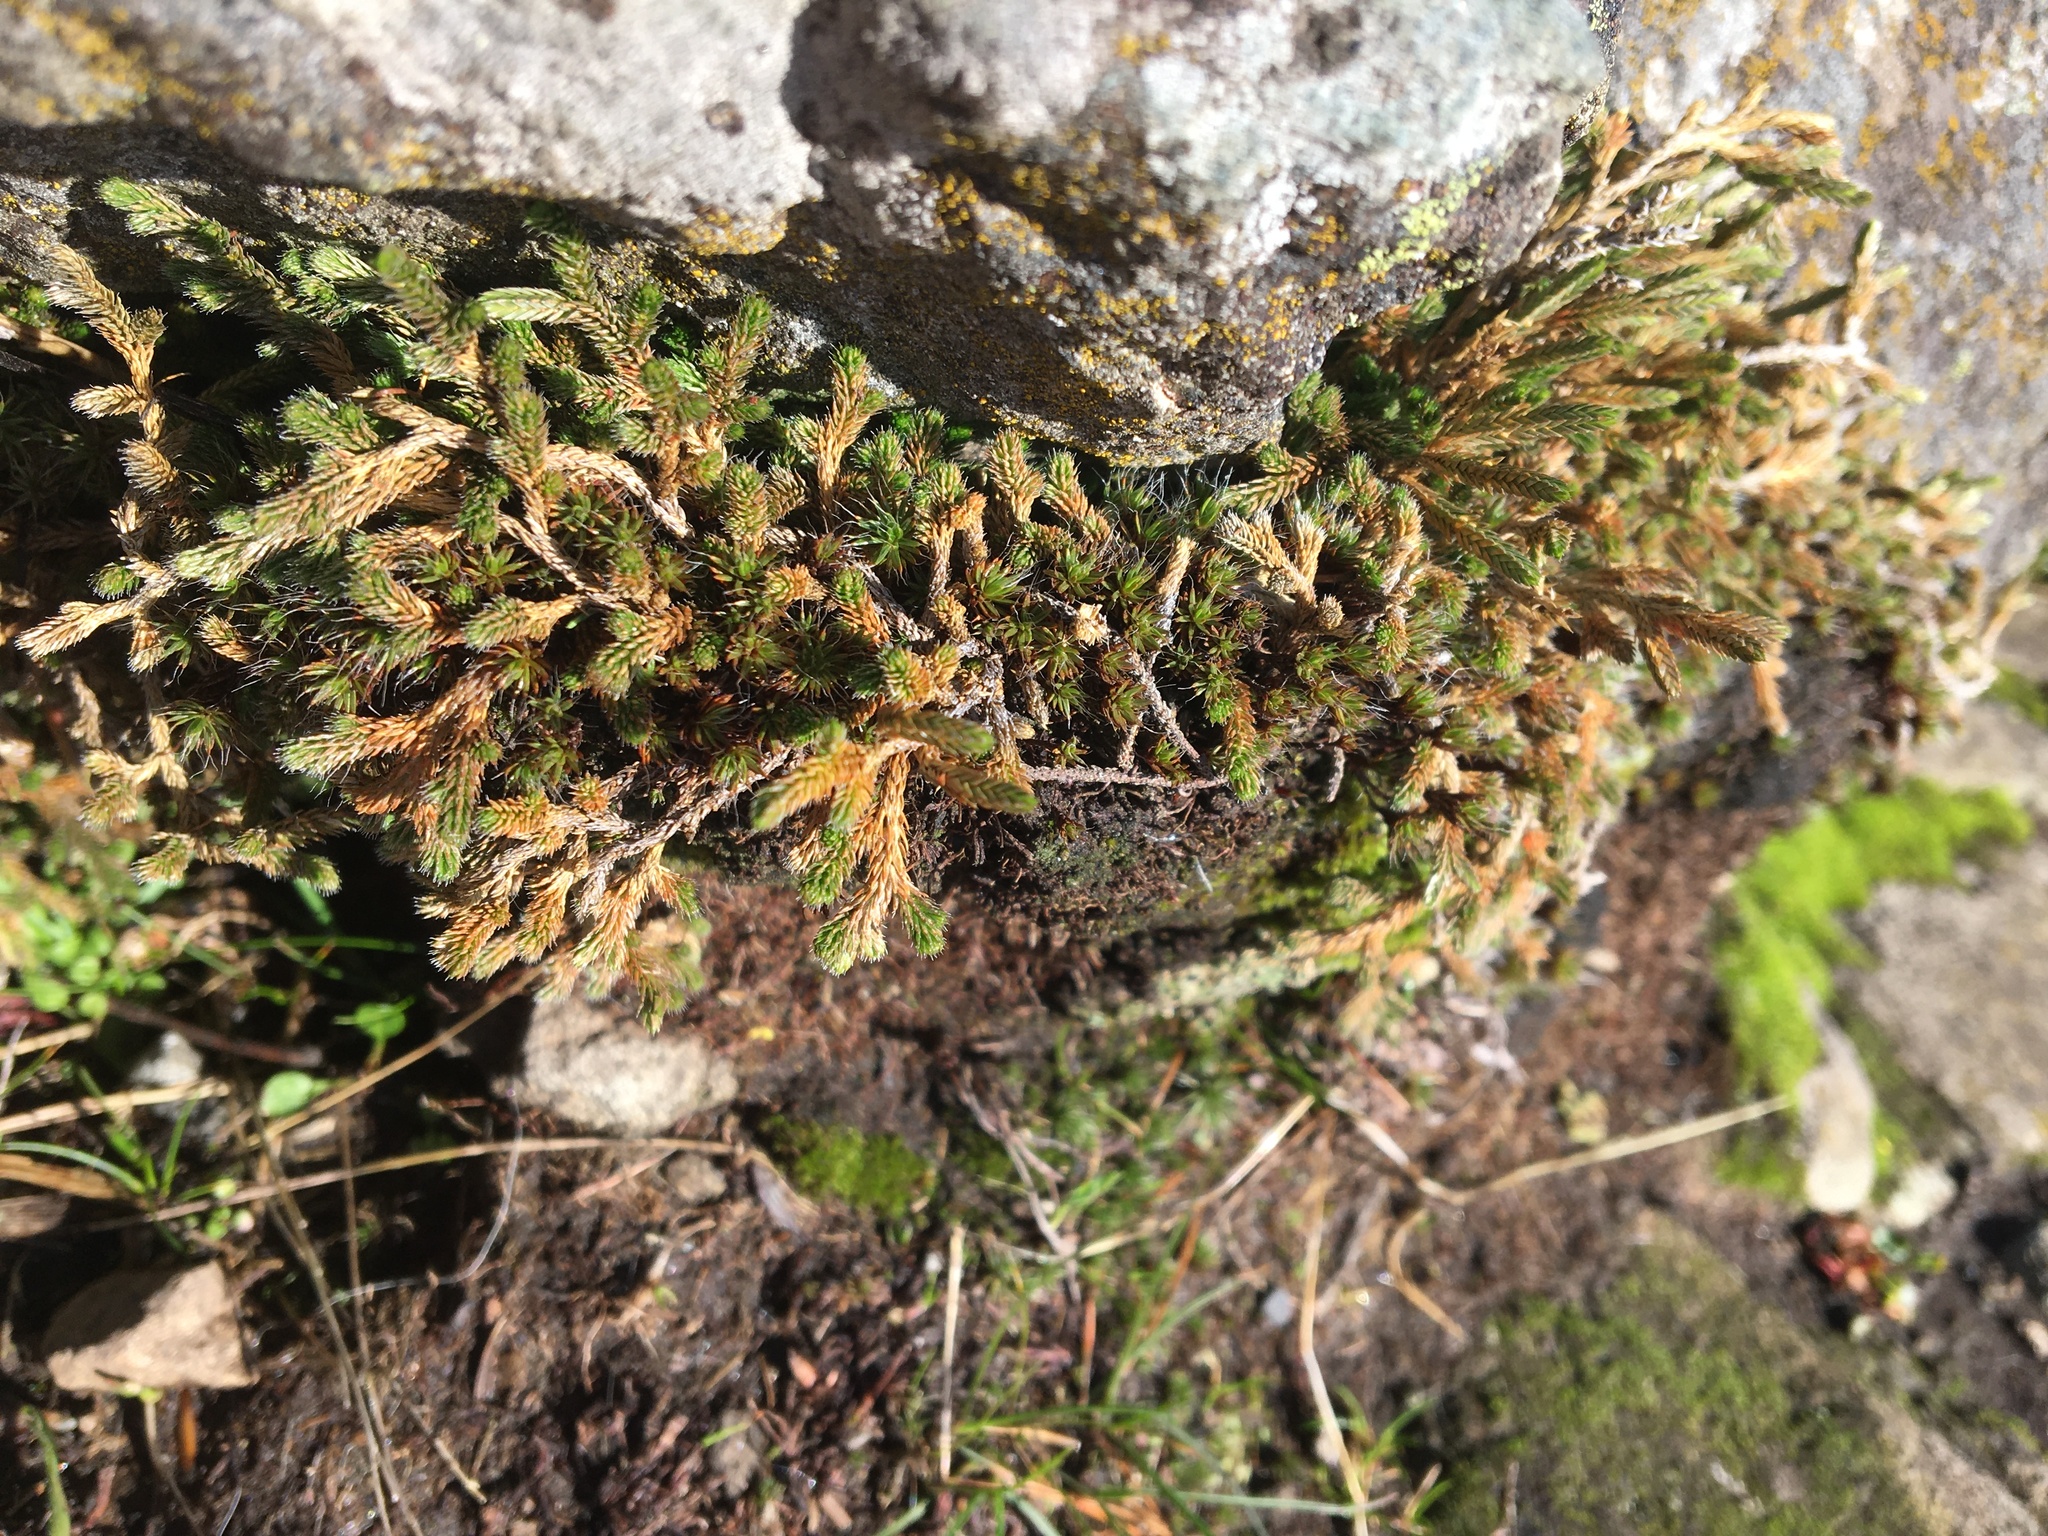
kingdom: Plantae
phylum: Tracheophyta
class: Lycopodiopsida
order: Selaginellales
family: Selaginellaceae
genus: Selaginella
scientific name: Selaginella wallacei
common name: Wallace's selaginella
